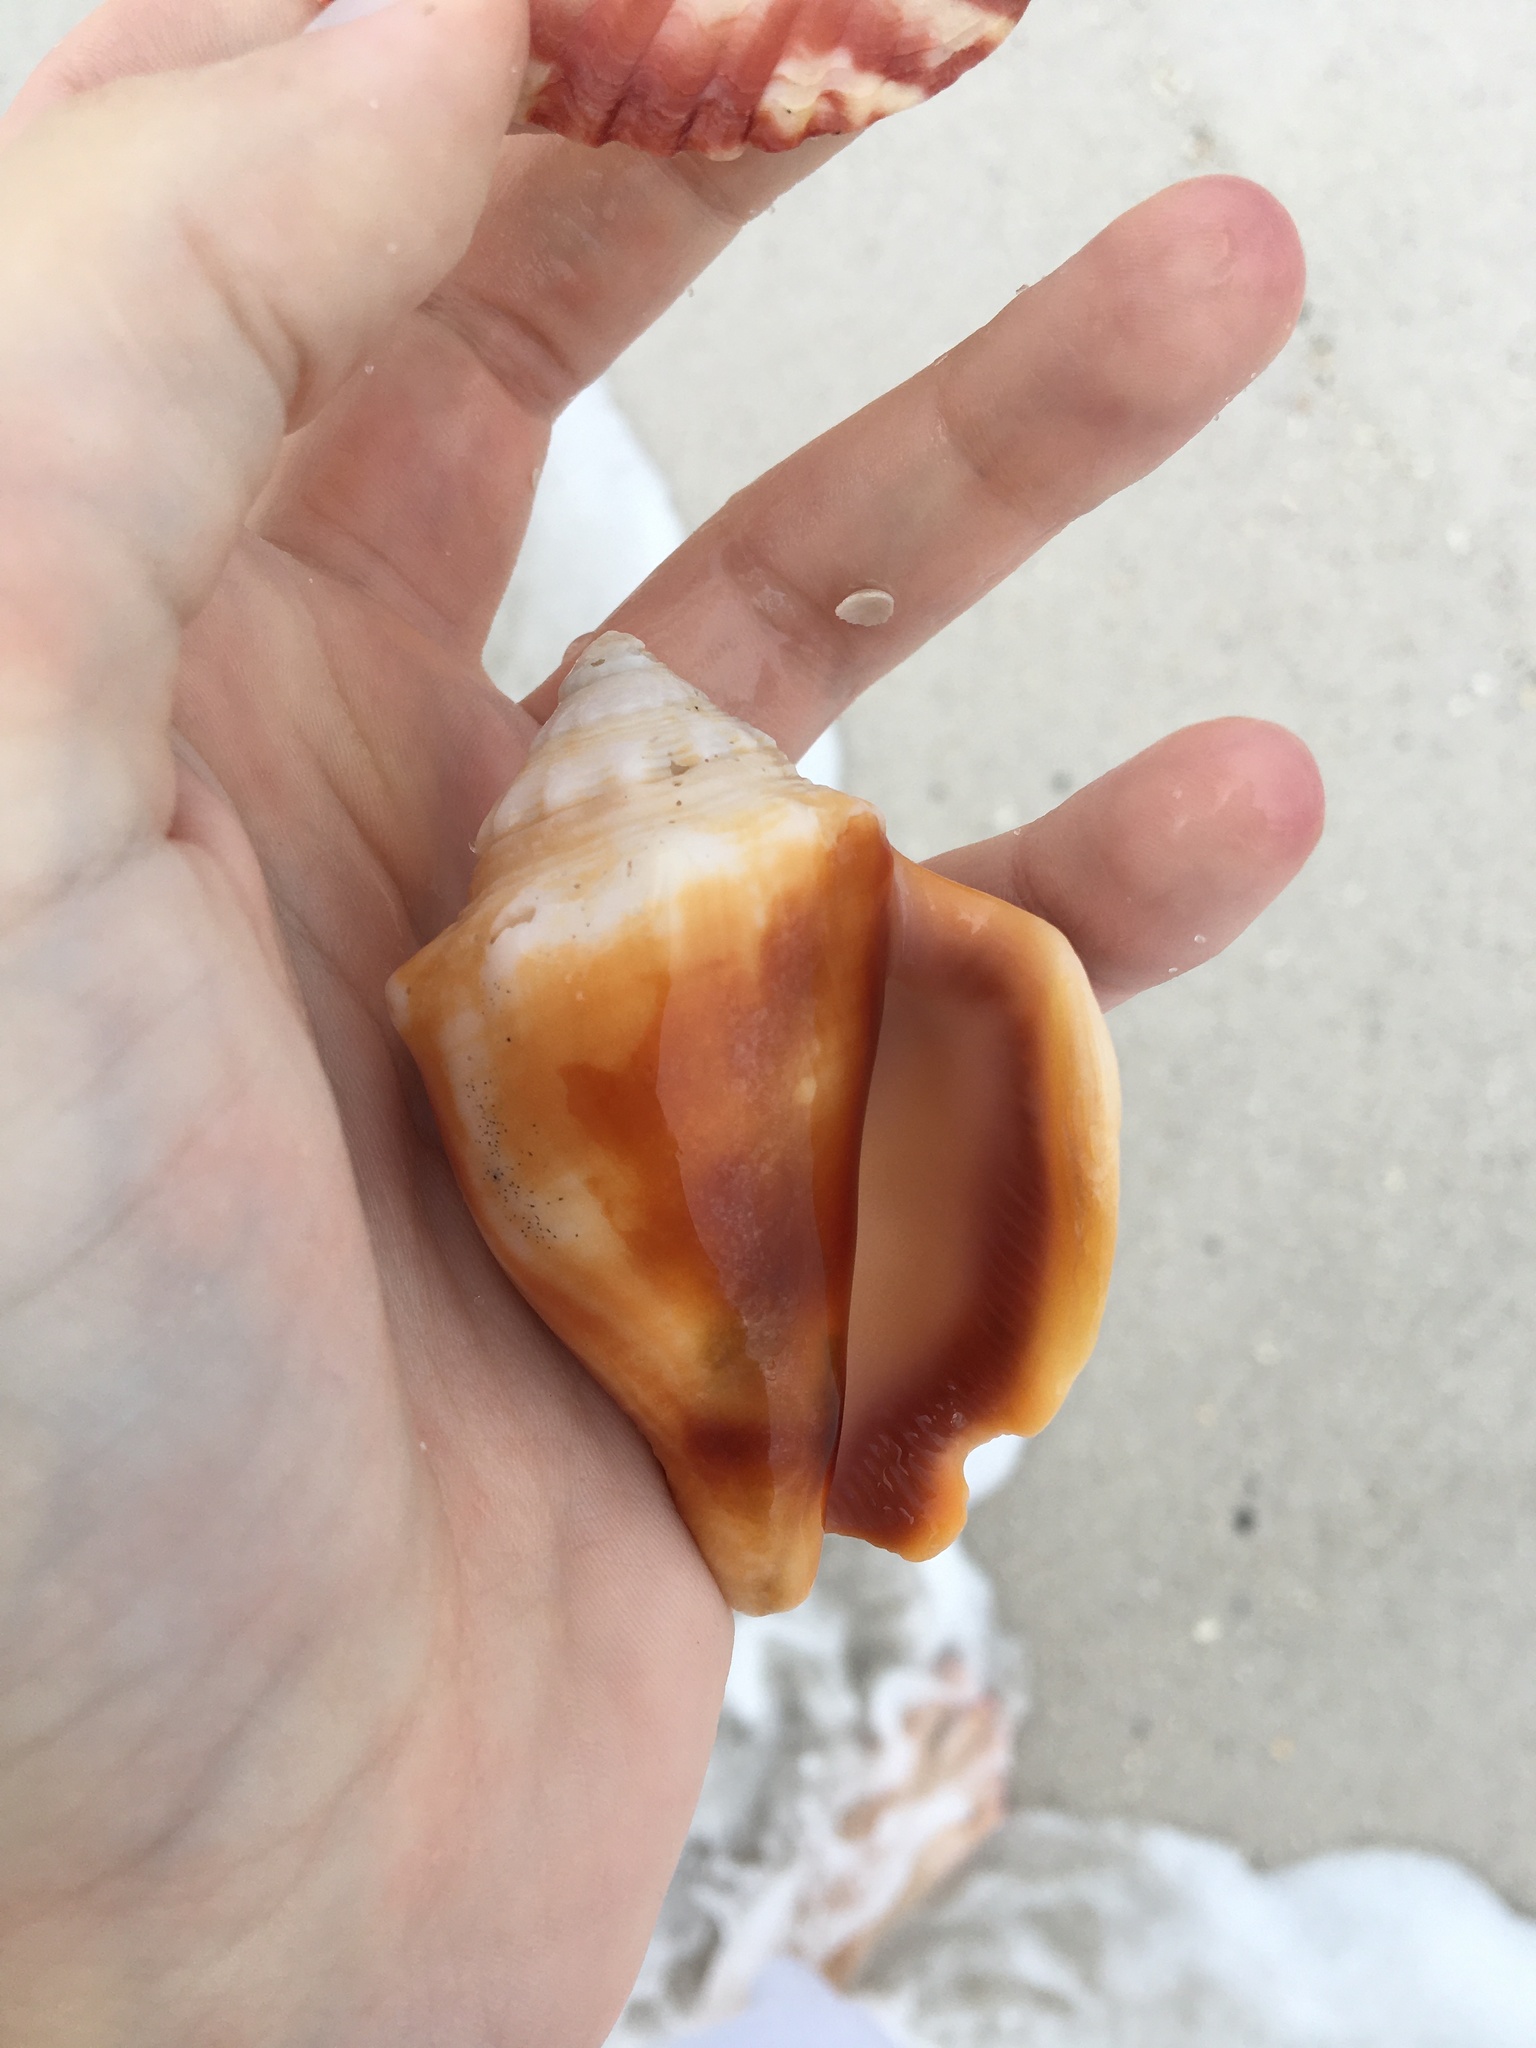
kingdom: Animalia
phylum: Mollusca
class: Gastropoda
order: Littorinimorpha
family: Strombidae
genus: Strombus
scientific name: Strombus alatus
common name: Florida fighting conch
